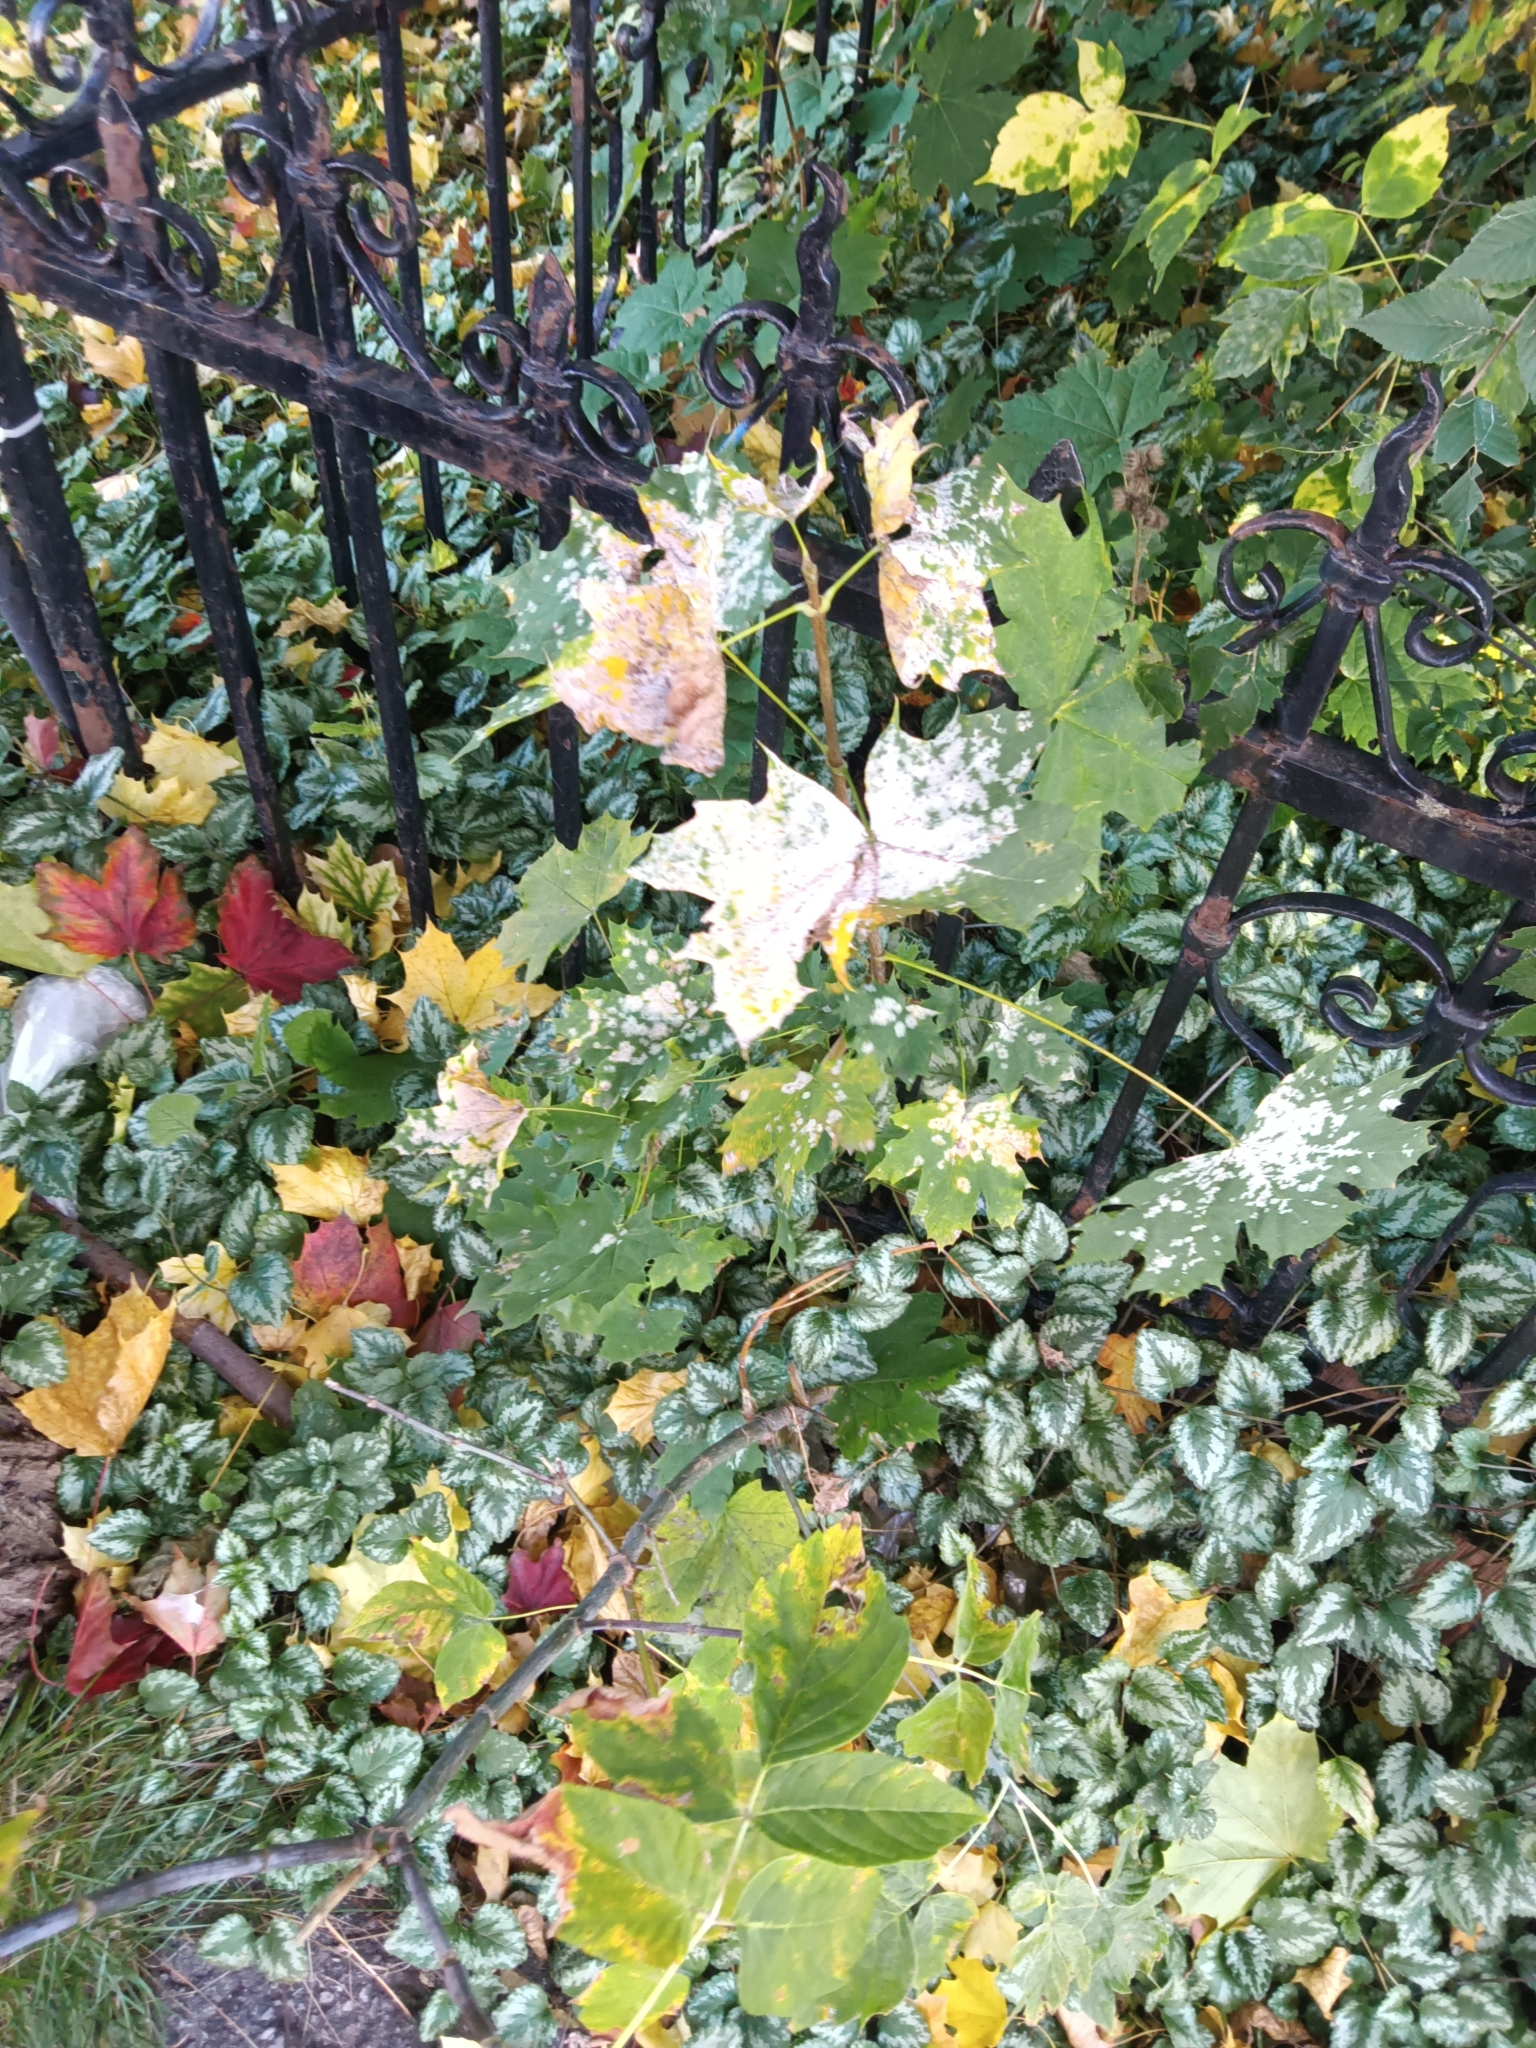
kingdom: Plantae
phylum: Tracheophyta
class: Magnoliopsida
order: Sapindales
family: Sapindaceae
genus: Acer
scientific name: Acer platanoides
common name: Norway maple
